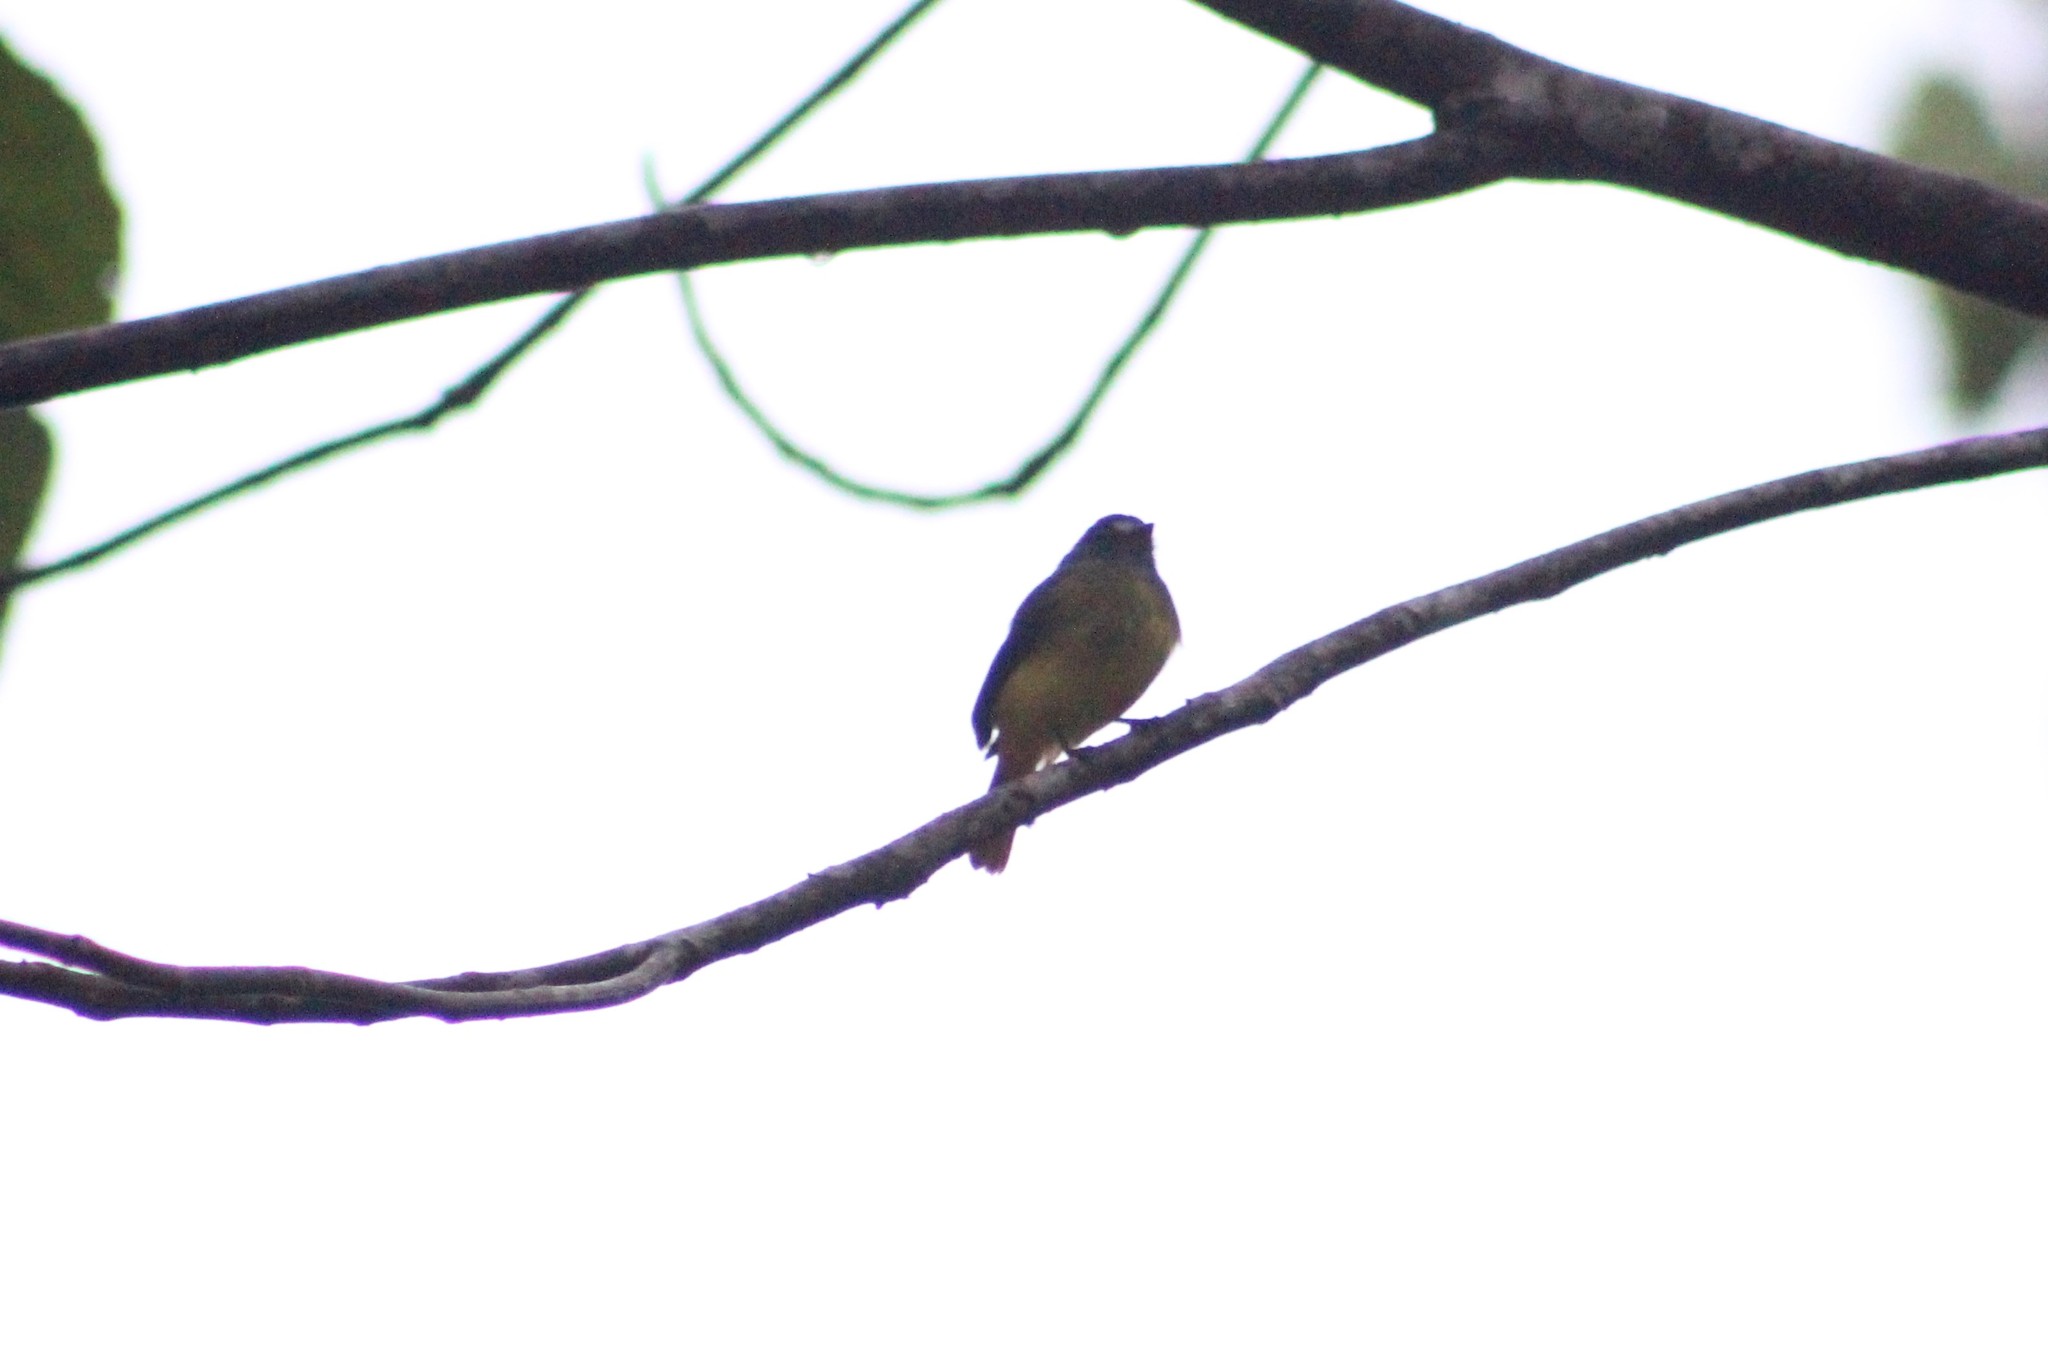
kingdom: Animalia
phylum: Chordata
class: Aves
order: Passeriformes
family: Tyrannidae
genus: Myiotriccus
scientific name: Myiotriccus ornatus
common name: Ornate flycatcher
